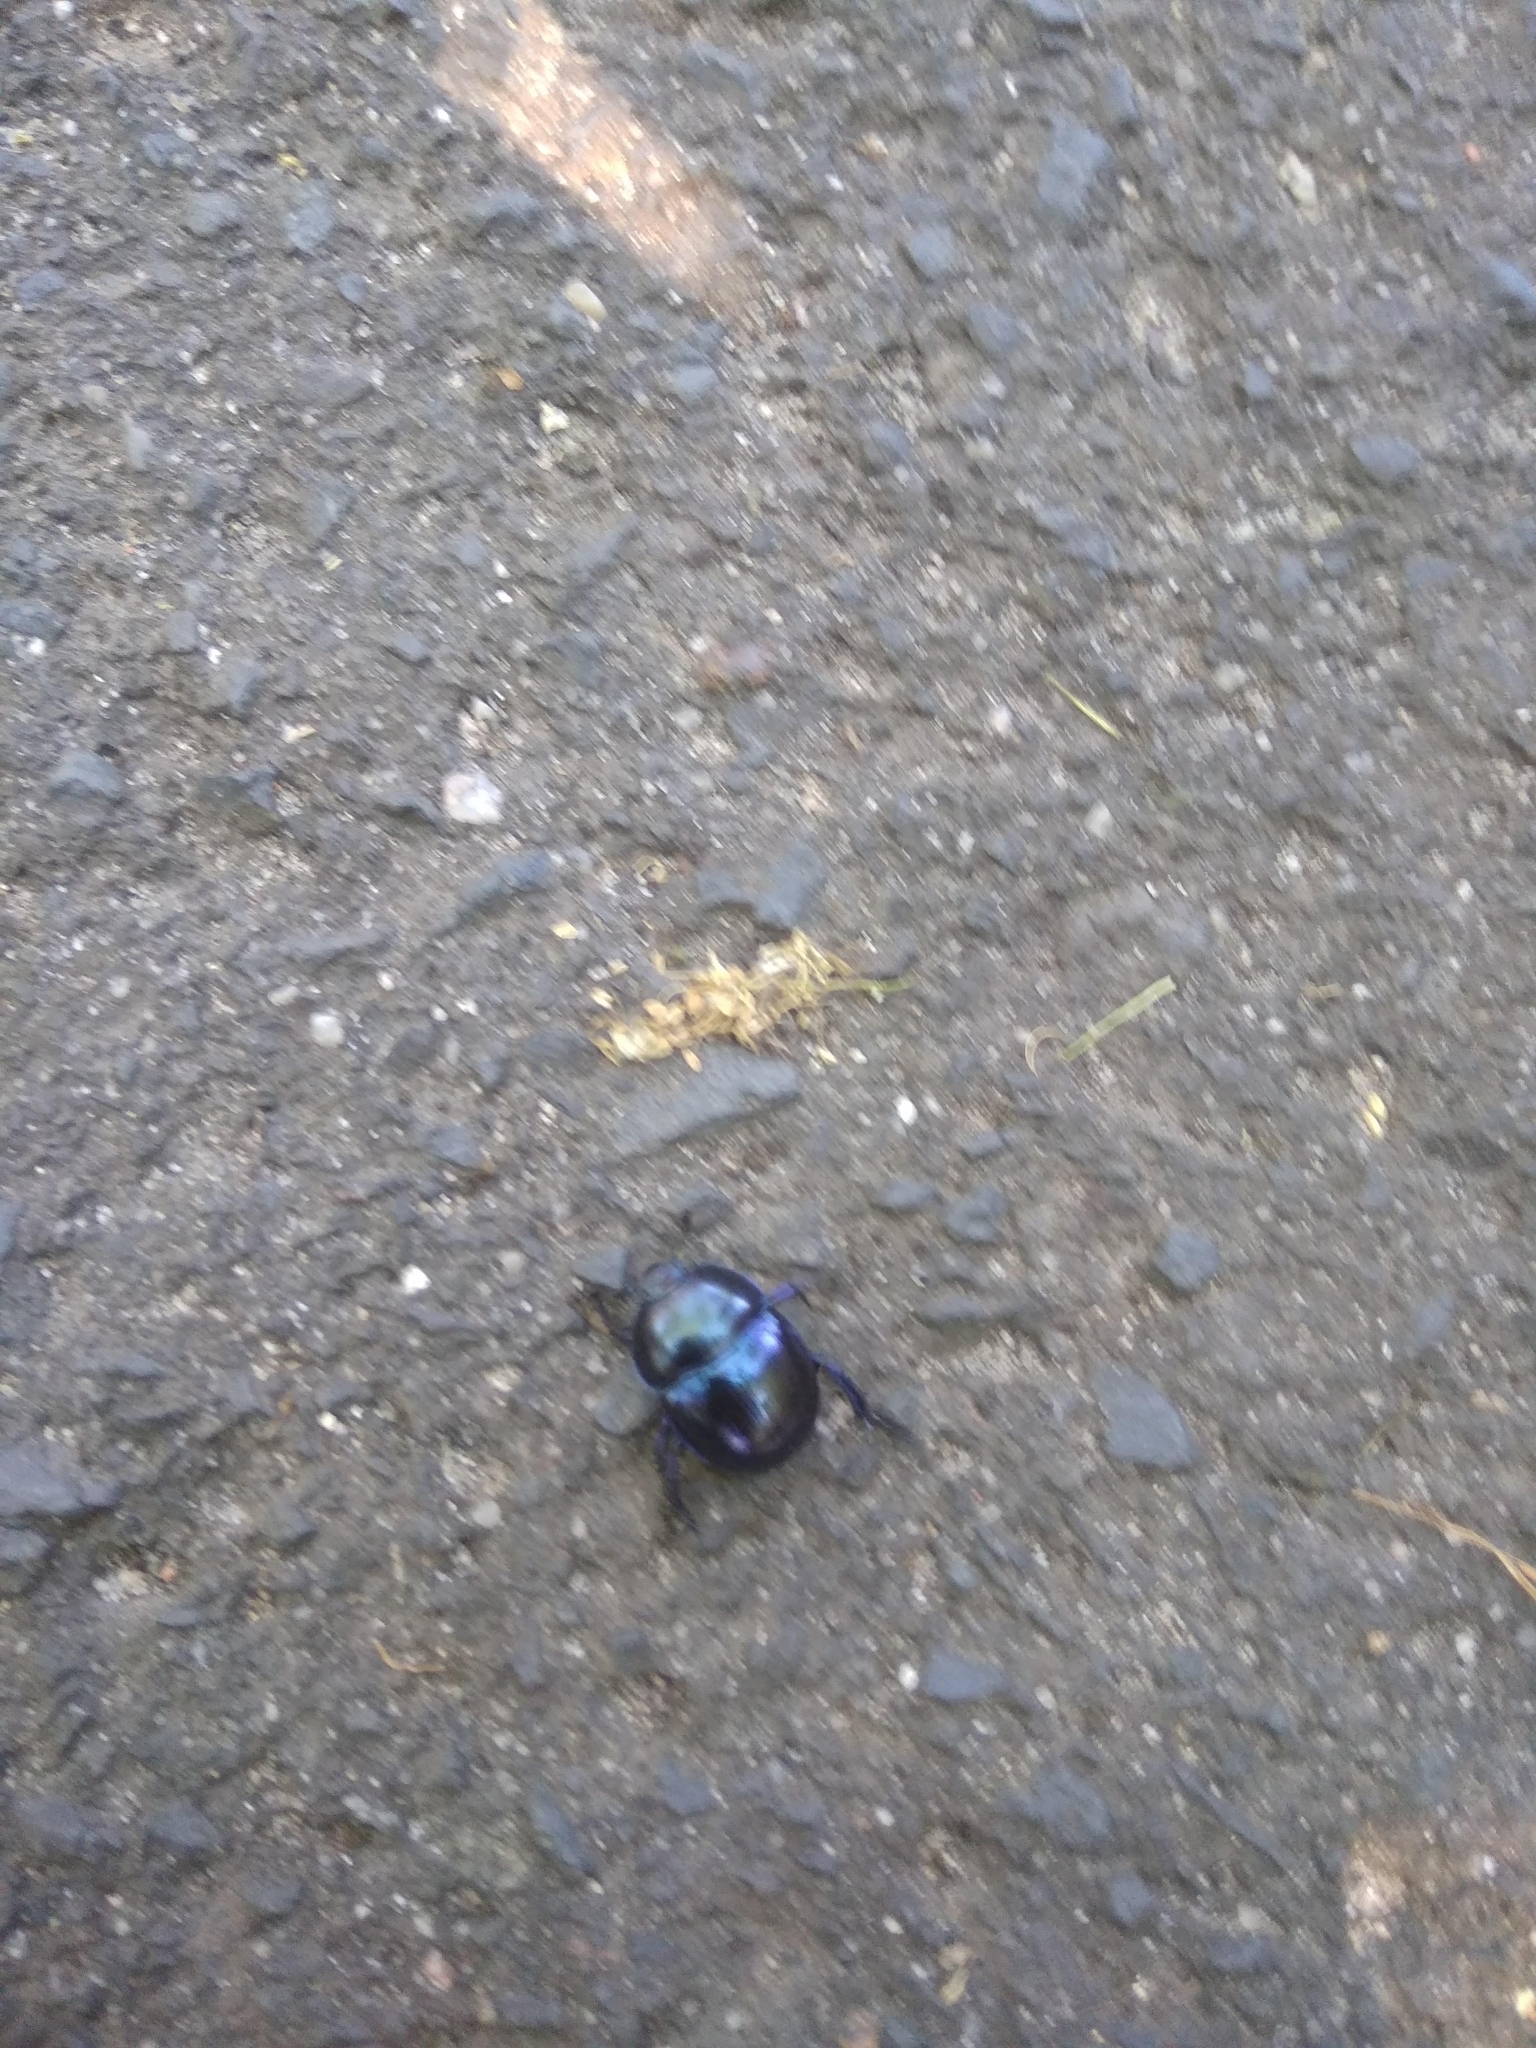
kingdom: Animalia
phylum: Arthropoda
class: Insecta
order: Coleoptera
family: Geotrupidae
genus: Trypocopris
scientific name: Trypocopris vernalis
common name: Spring dumbledor
